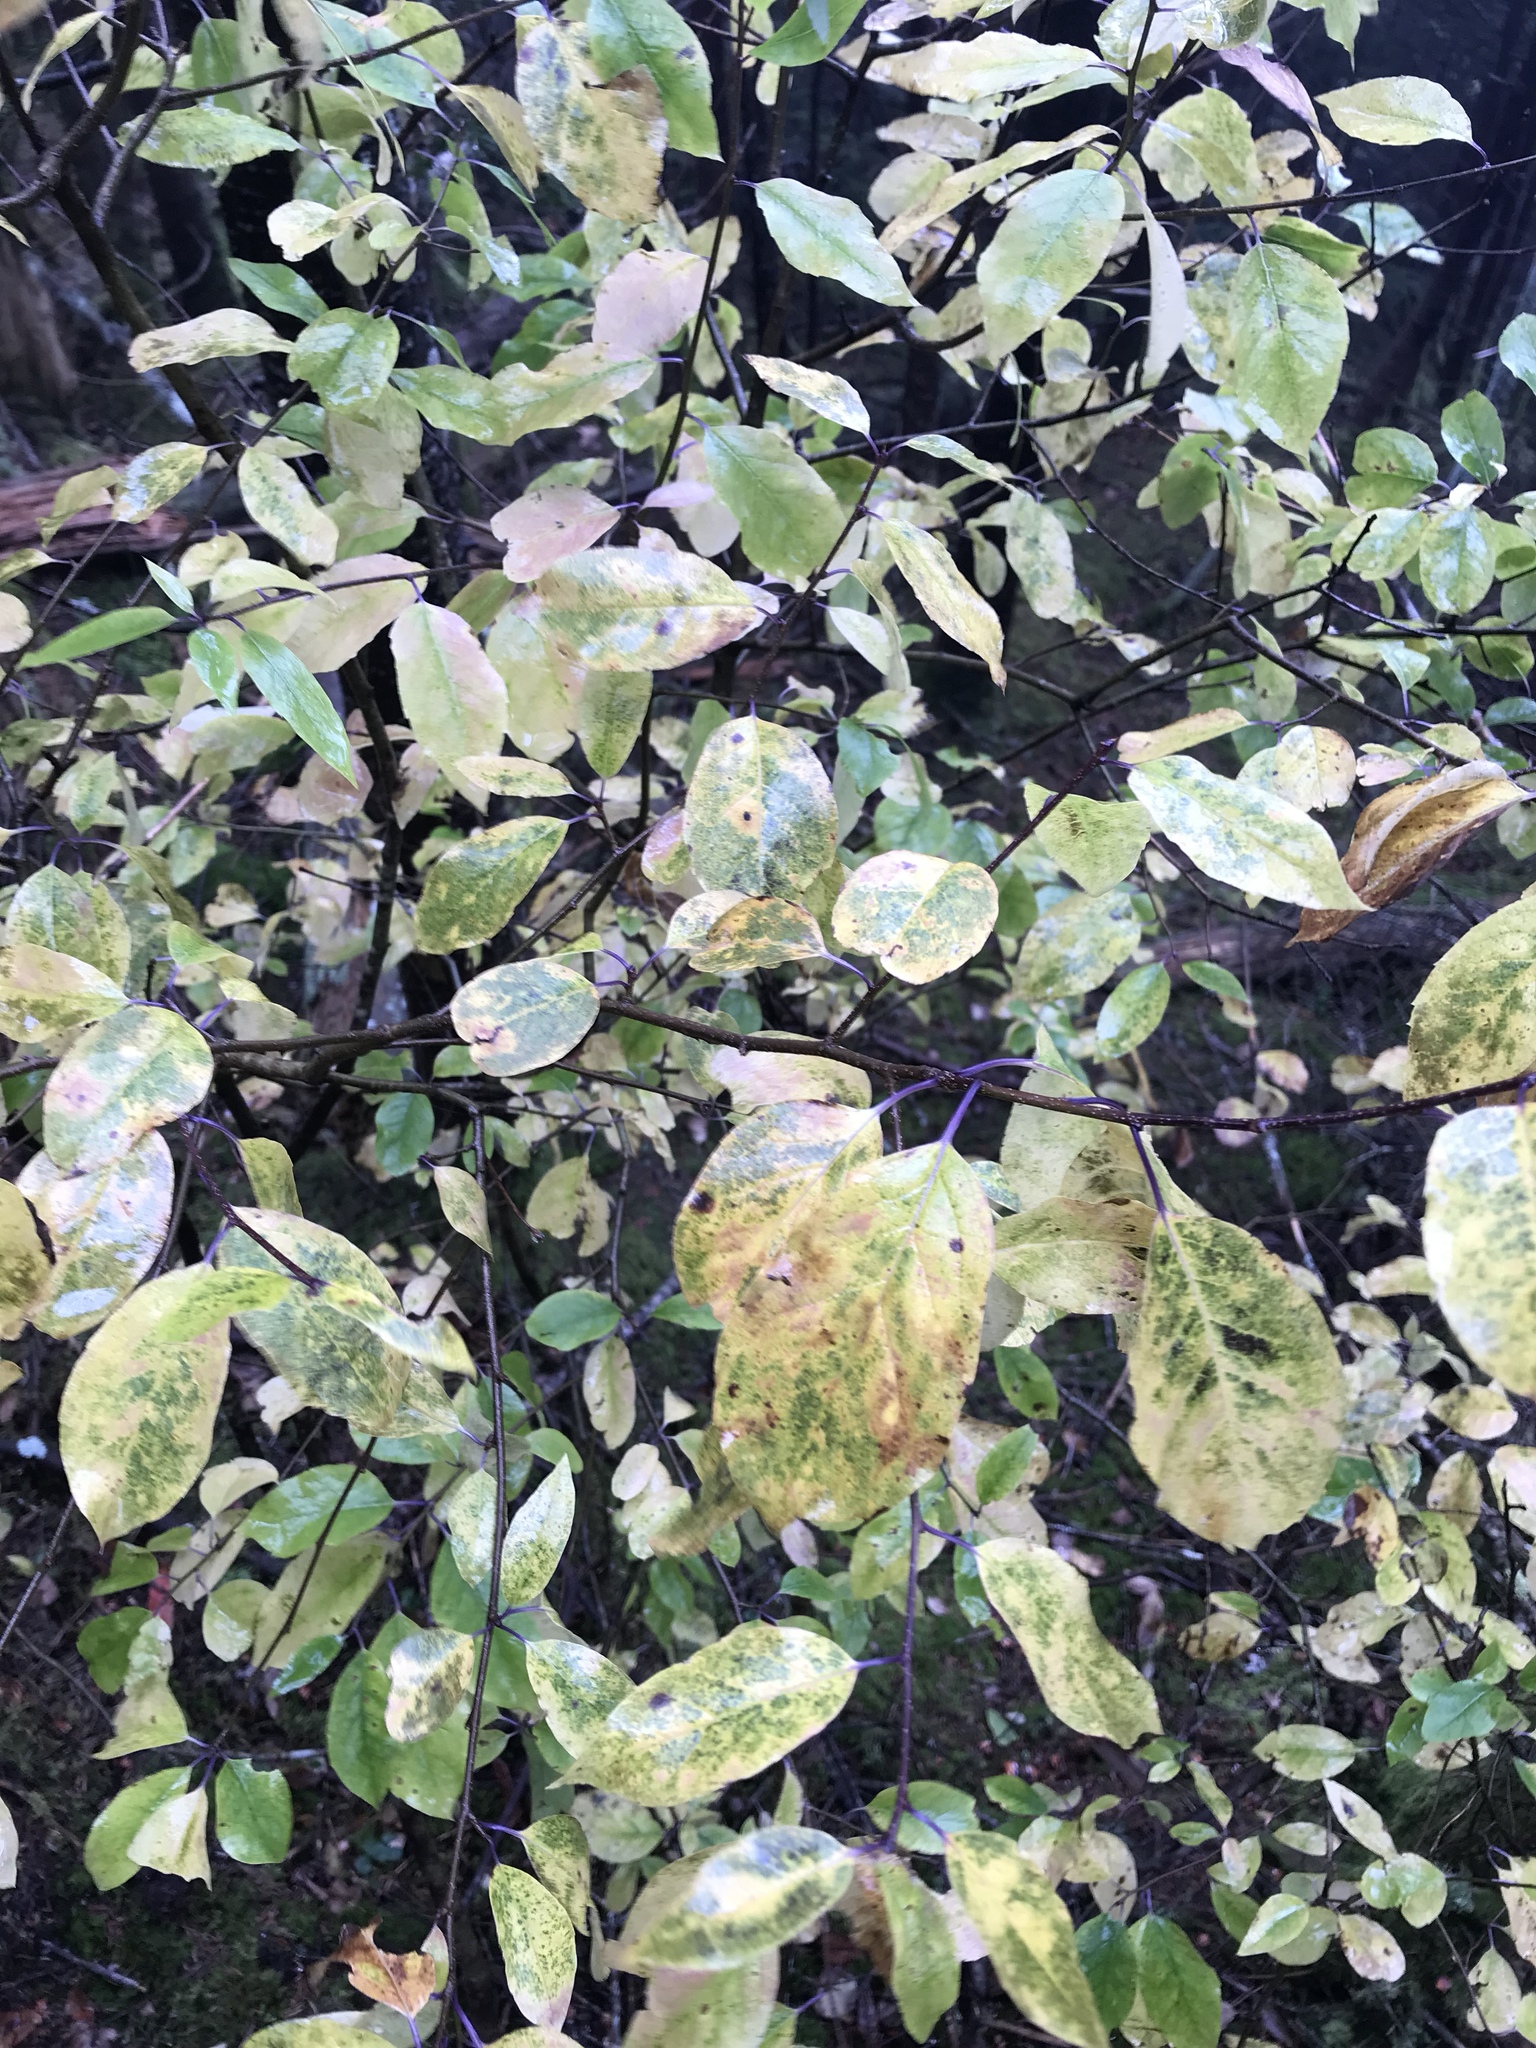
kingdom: Plantae
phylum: Tracheophyta
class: Magnoliopsida
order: Aquifoliales
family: Aquifoliaceae
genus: Ilex
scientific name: Ilex mucronata
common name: Catberry
